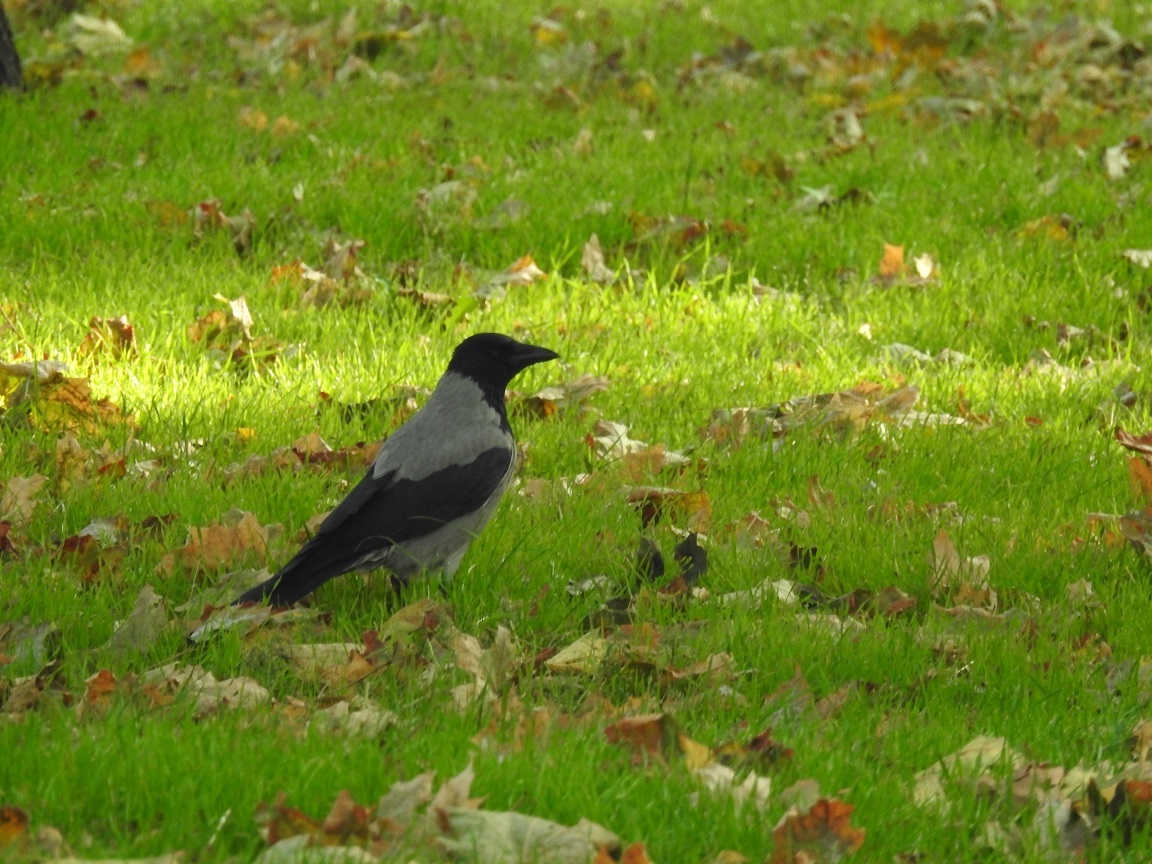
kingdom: Animalia
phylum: Chordata
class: Aves
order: Passeriformes
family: Corvidae
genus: Corvus
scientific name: Corvus cornix
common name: Hooded crow
